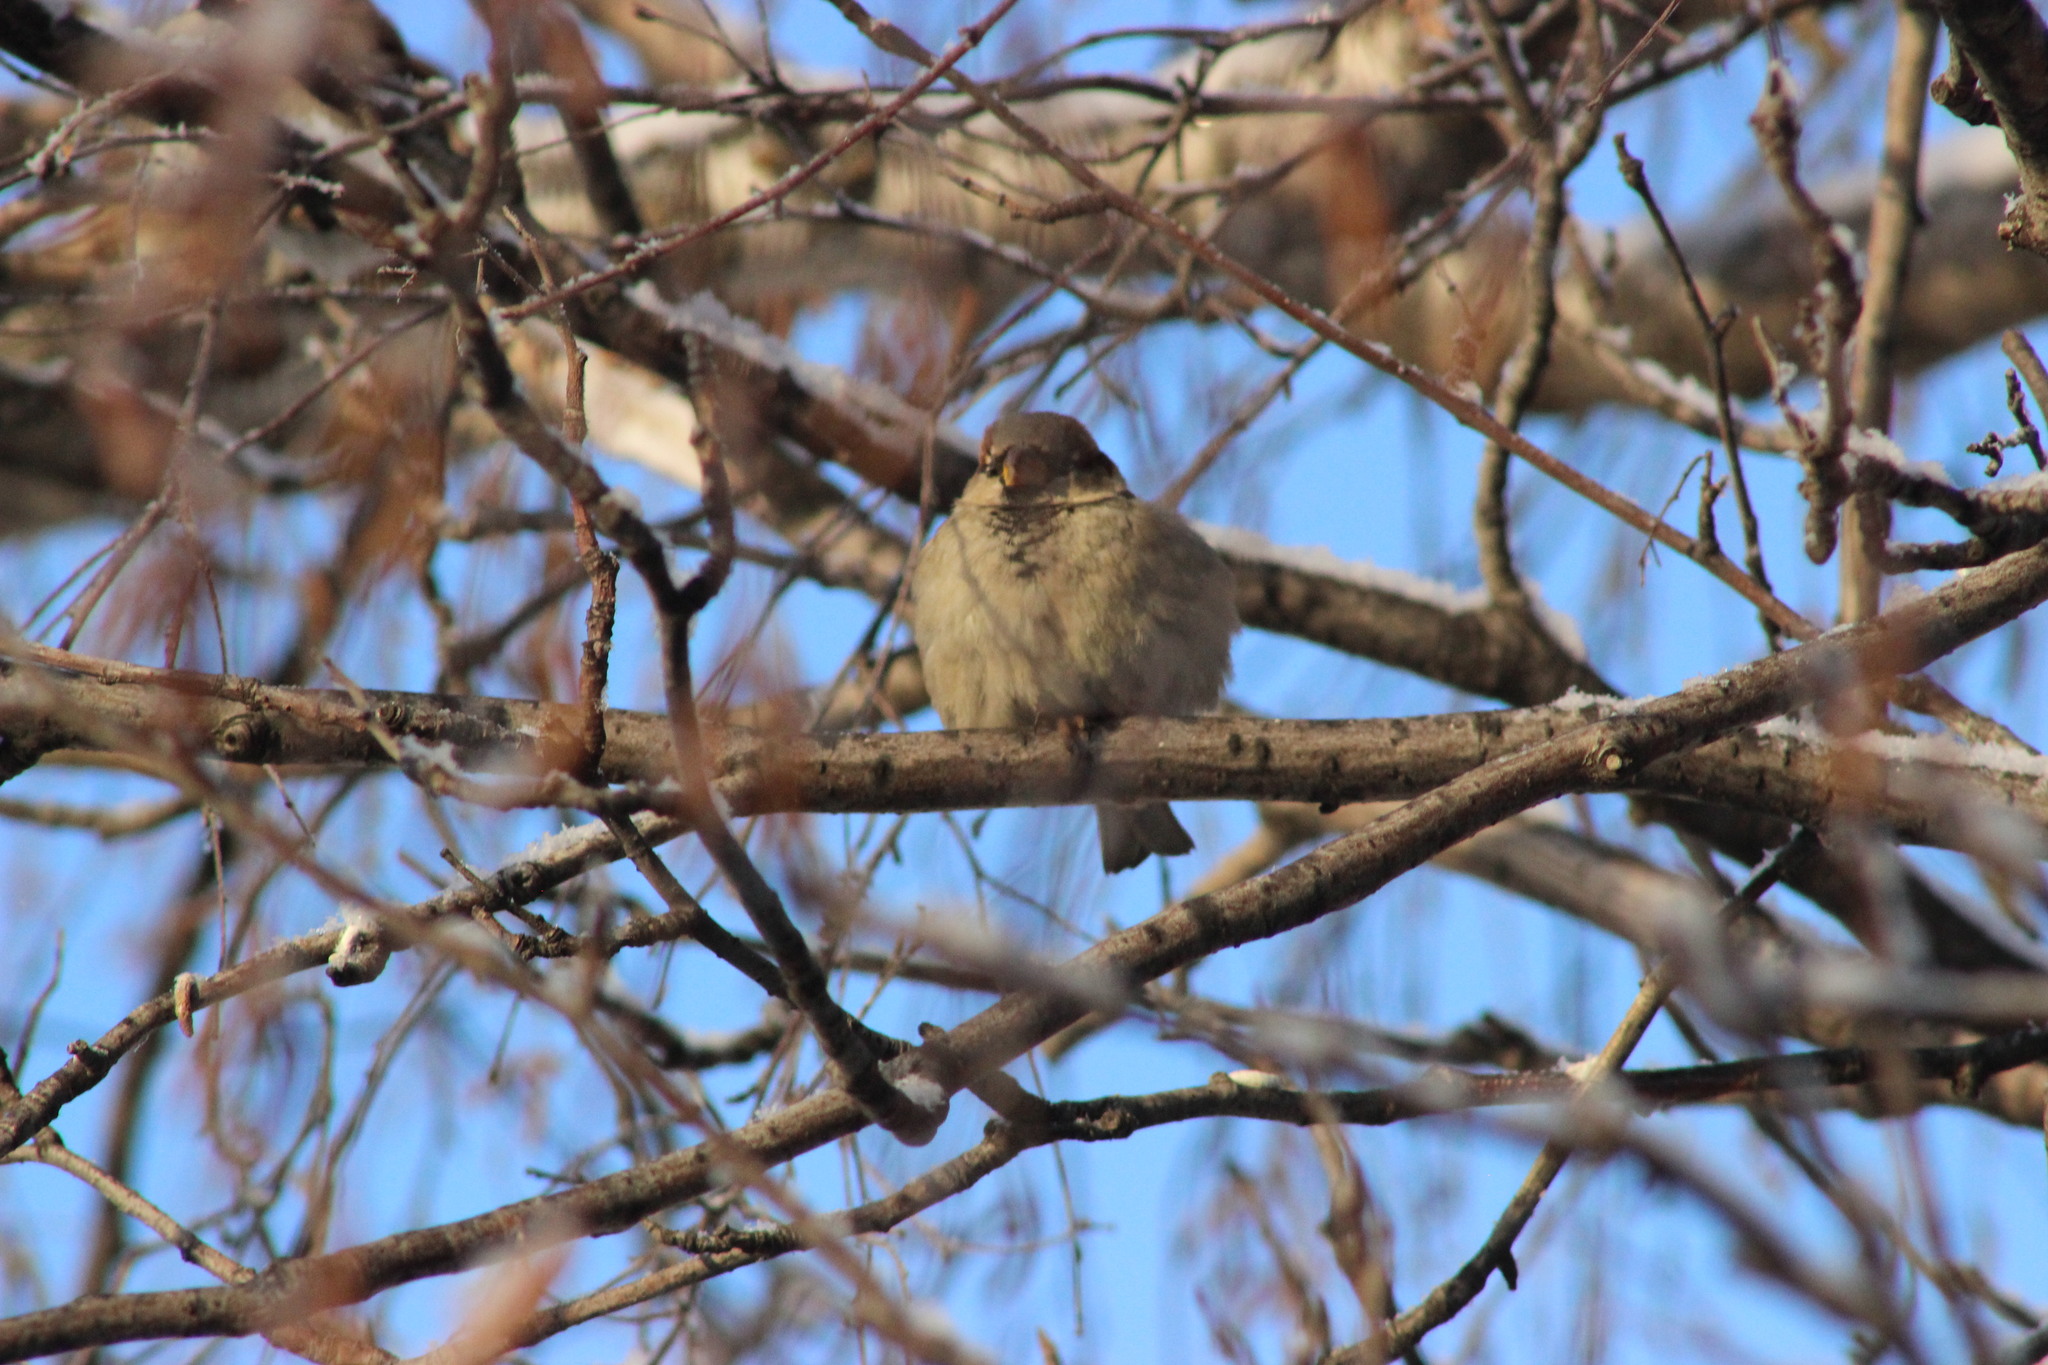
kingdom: Animalia
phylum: Chordata
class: Aves
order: Passeriformes
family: Passeridae
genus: Passer
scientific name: Passer domesticus
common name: House sparrow
